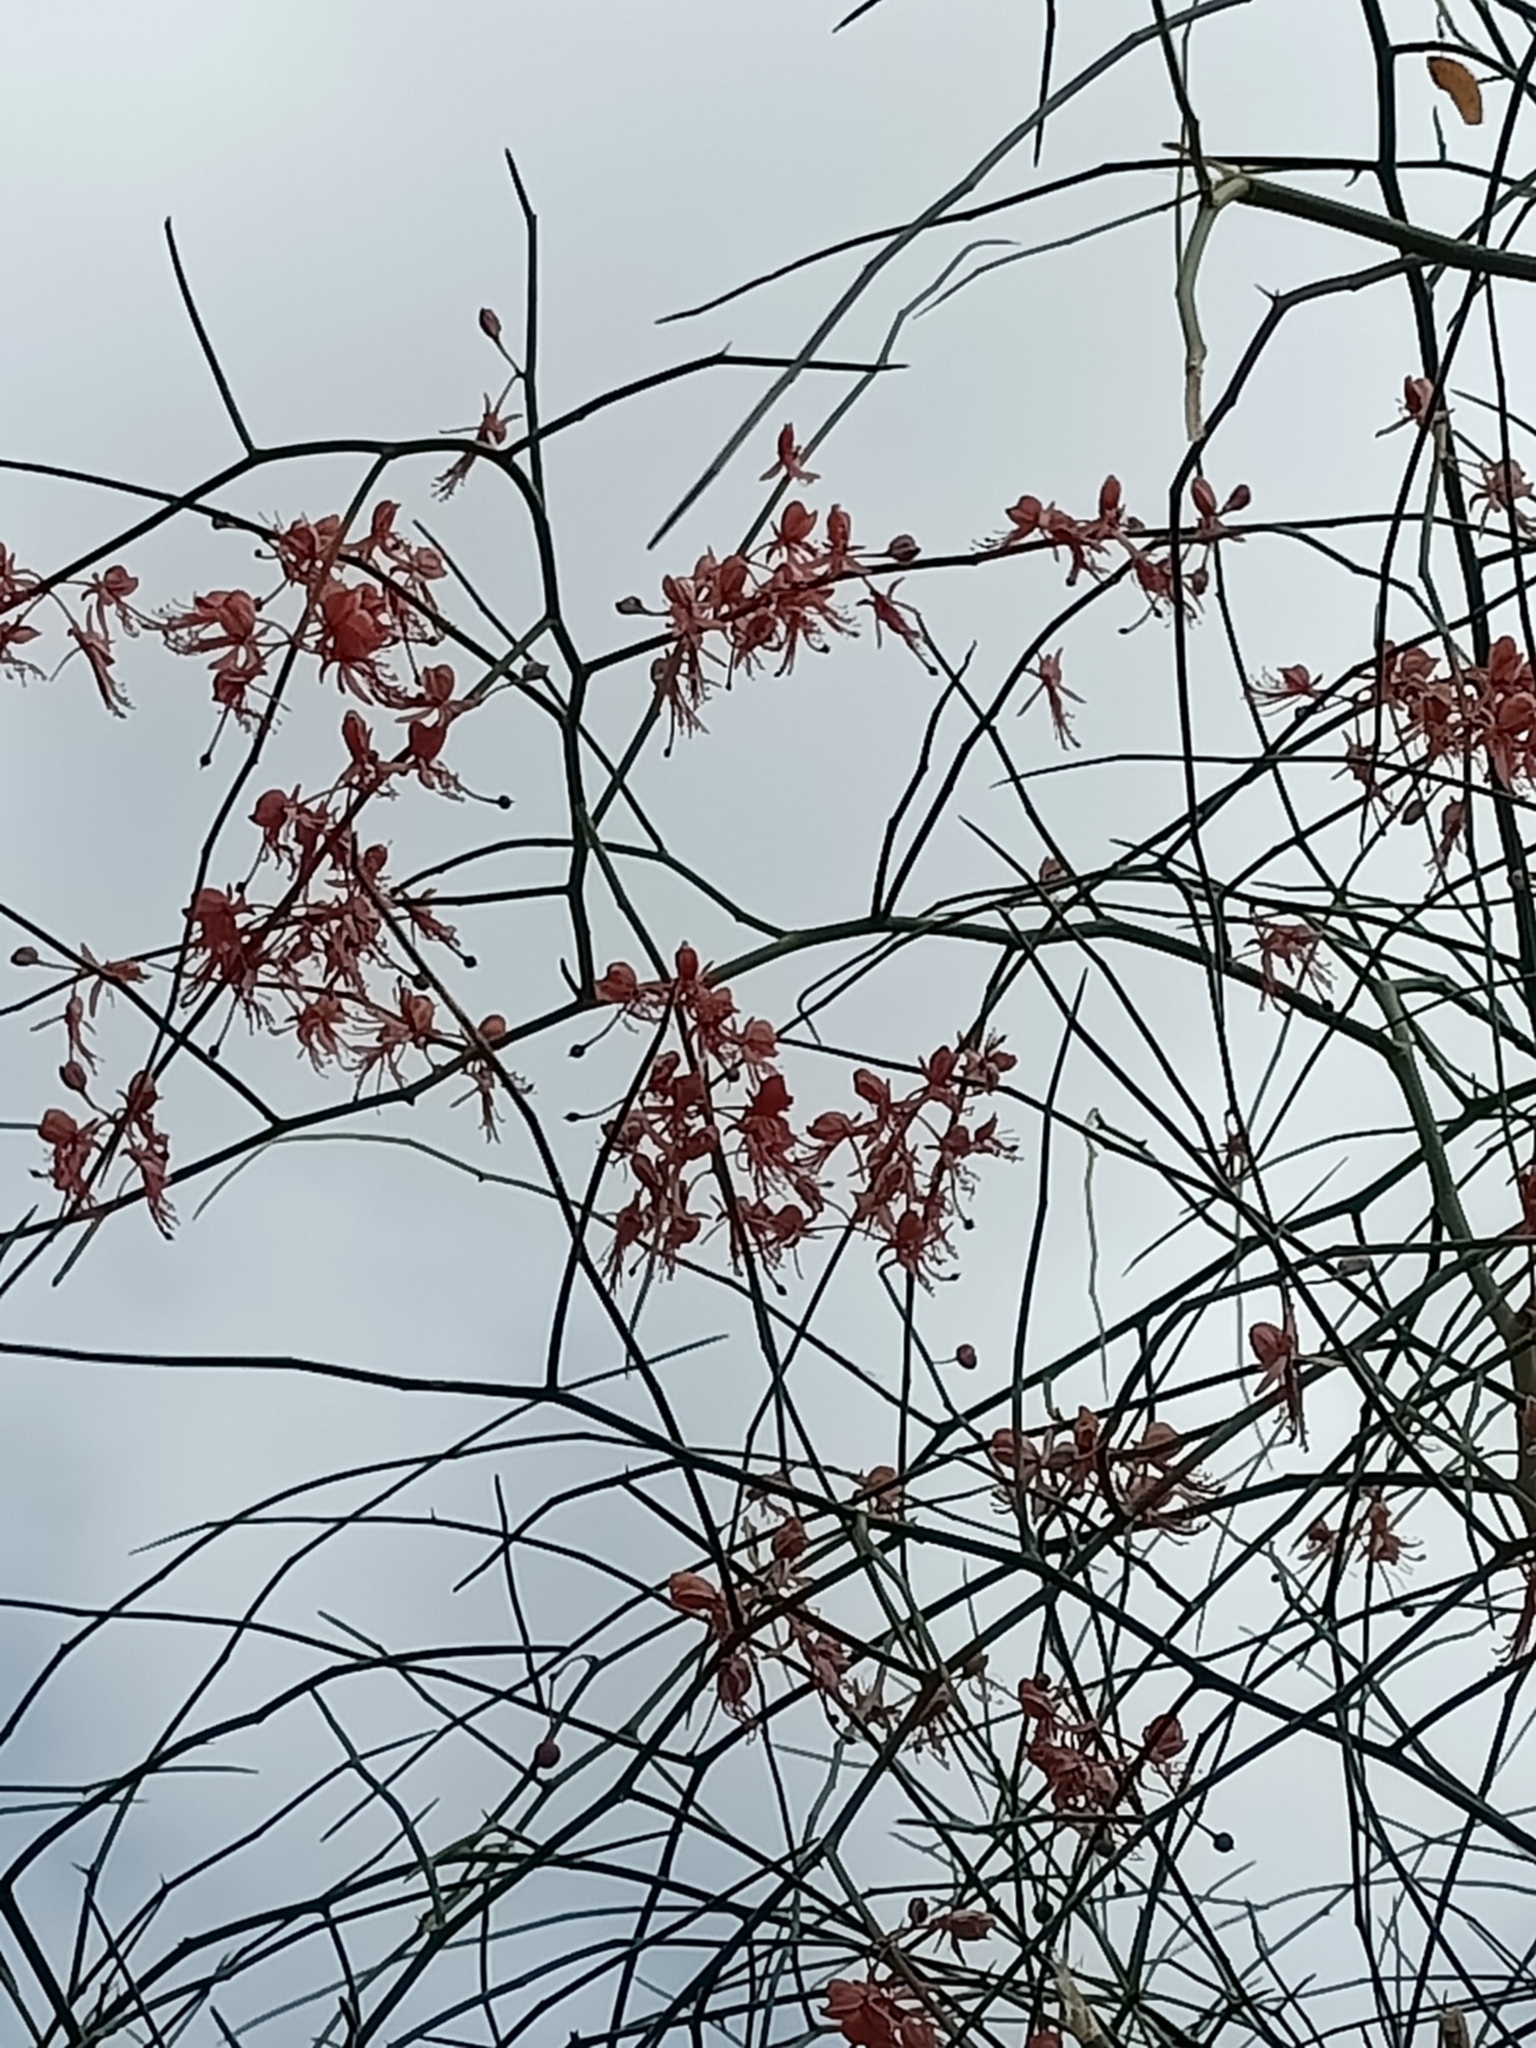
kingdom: Plantae
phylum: Tracheophyta
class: Magnoliopsida
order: Brassicales
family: Capparaceae
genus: Capparis
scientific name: Capparis decidua
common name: Sodada
